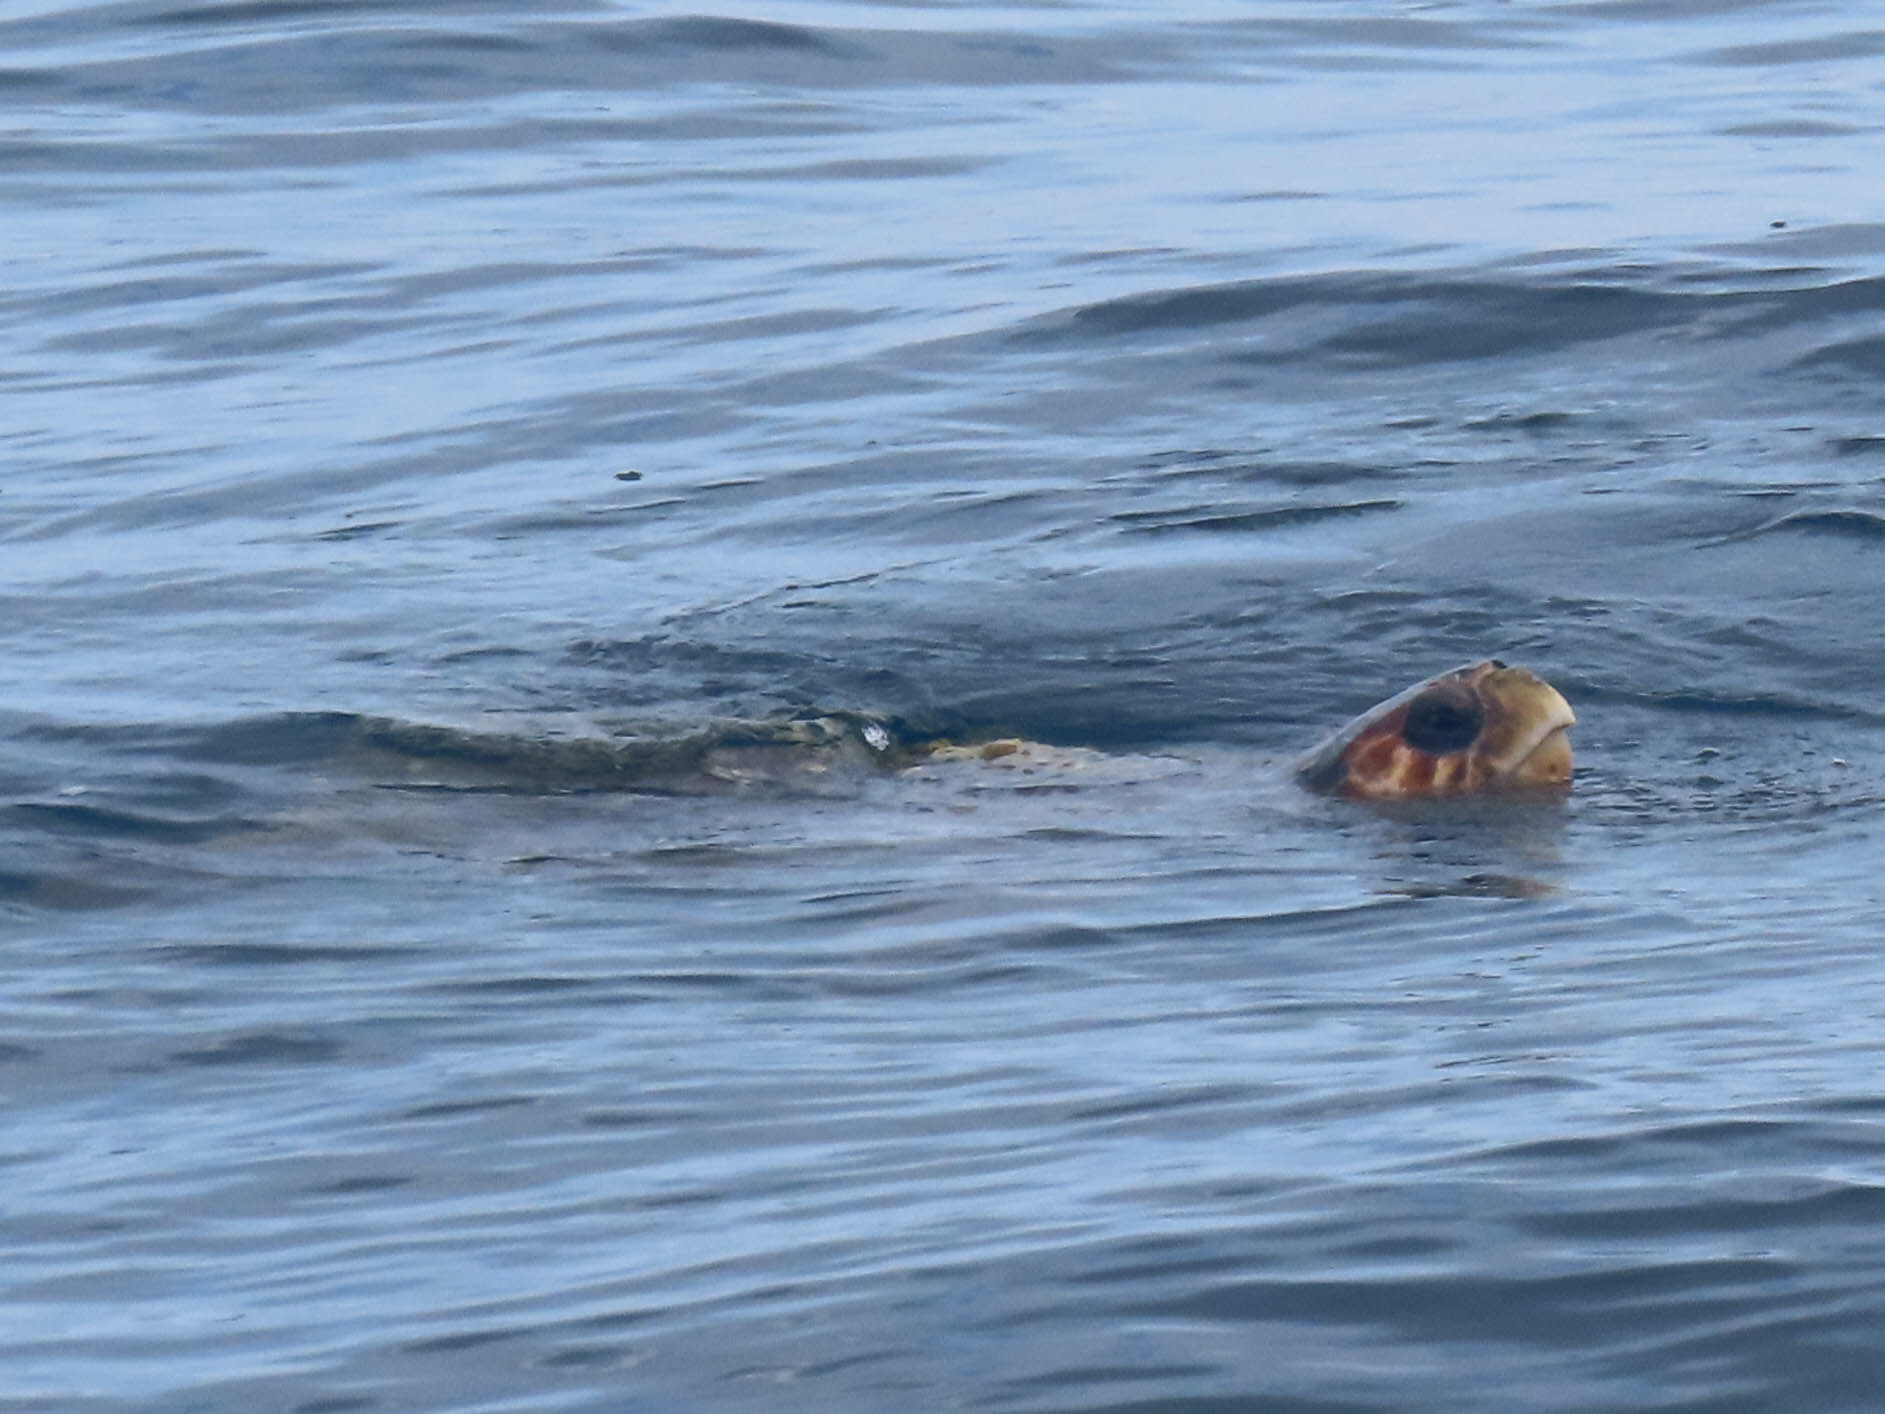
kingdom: Animalia
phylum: Chordata
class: Testudines
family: Cheloniidae
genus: Caretta
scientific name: Caretta caretta
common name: Loggerhead sea turtle
